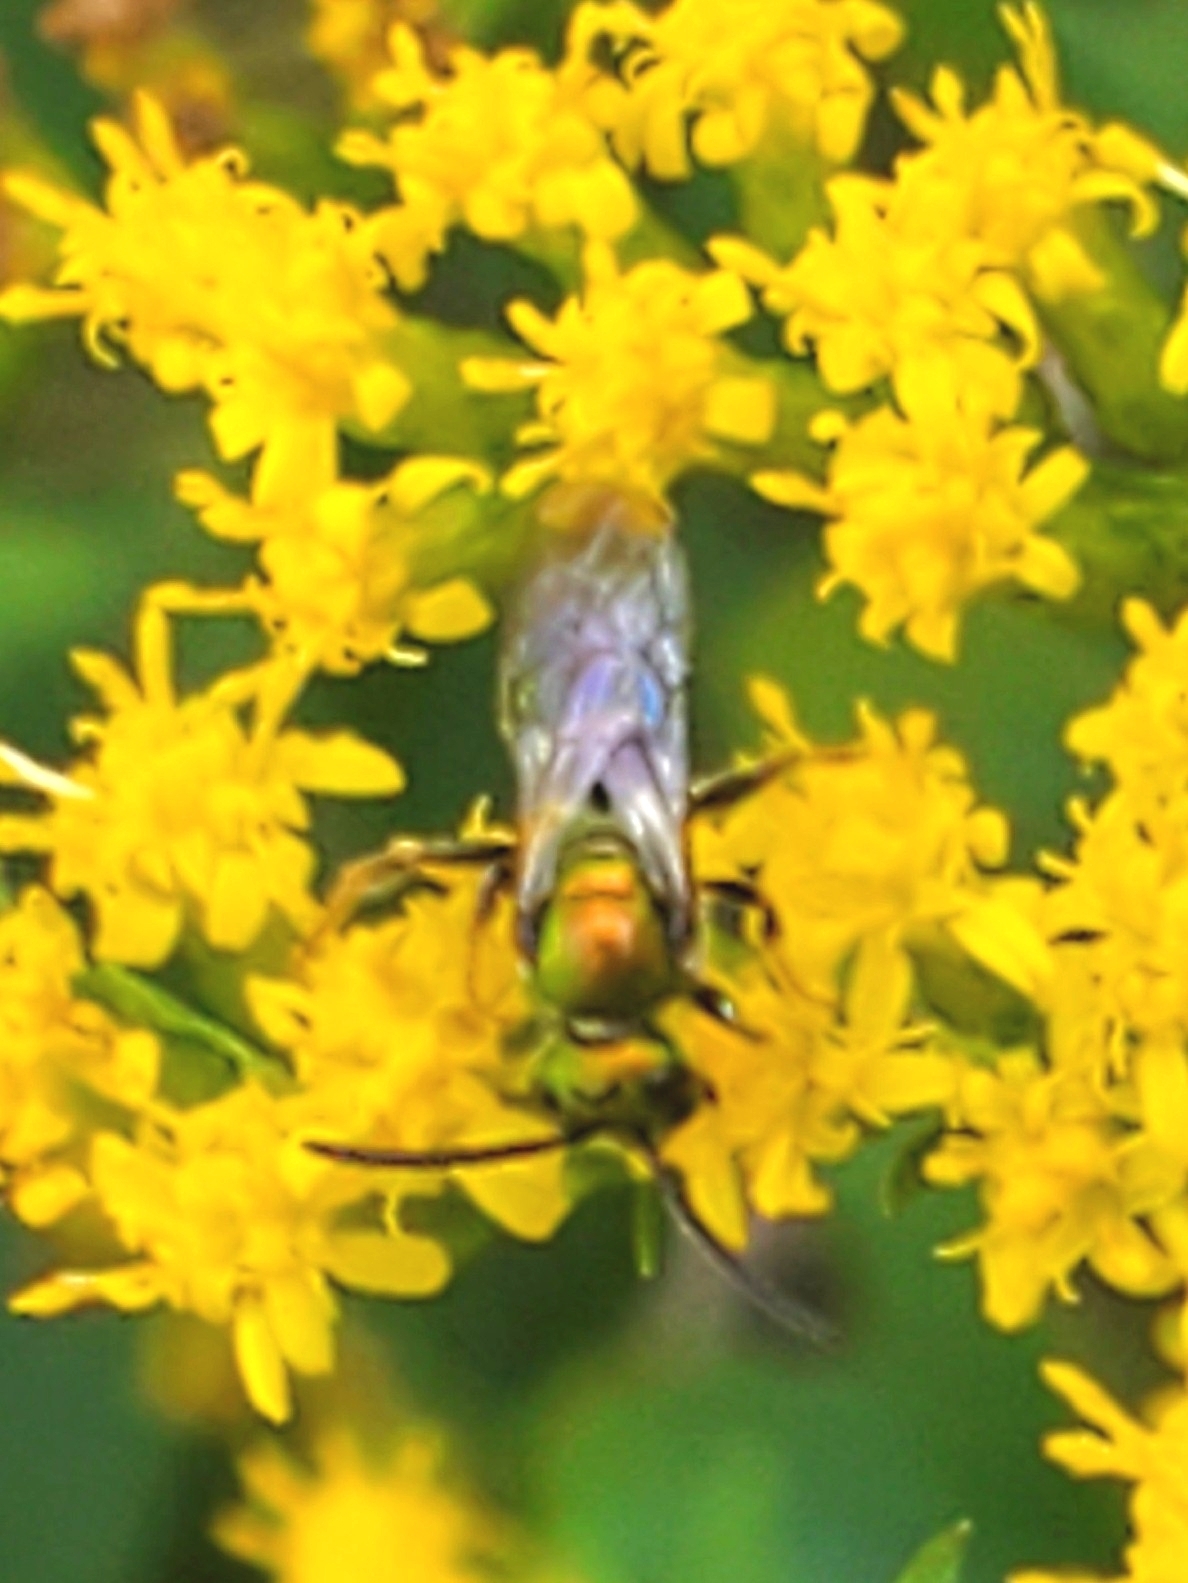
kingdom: Animalia
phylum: Arthropoda
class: Insecta
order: Hymenoptera
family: Halictidae
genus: Augochlora
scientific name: Augochlora pura
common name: Pure green sweat bee
